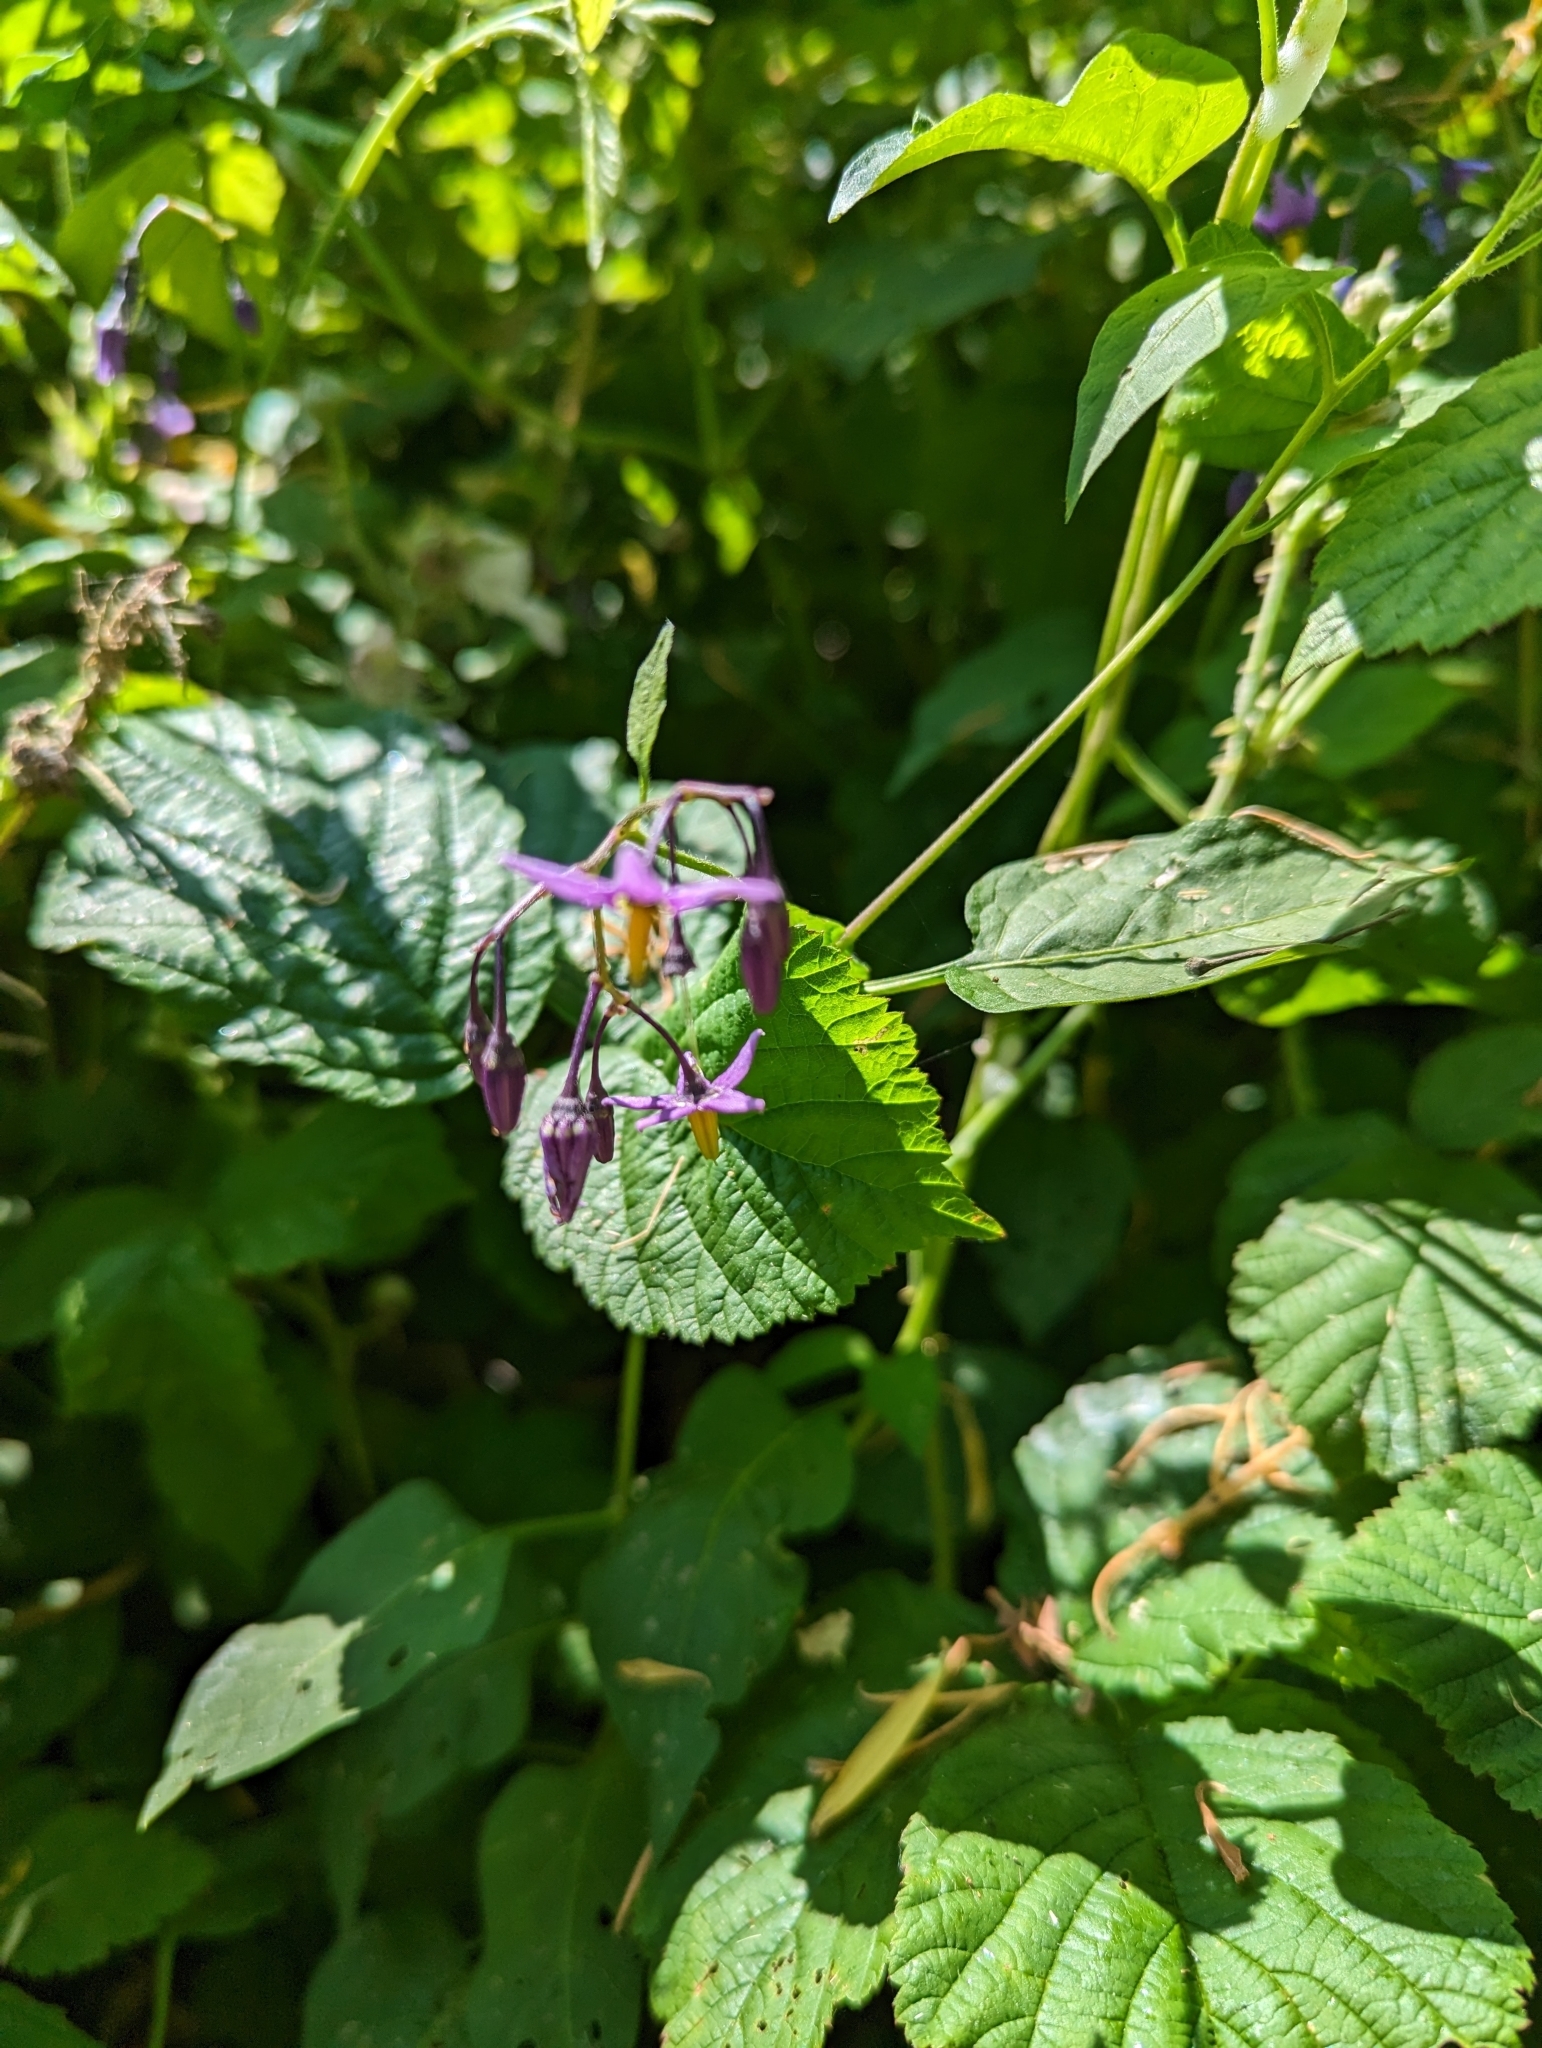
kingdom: Plantae
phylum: Tracheophyta
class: Magnoliopsida
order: Solanales
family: Solanaceae
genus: Solanum
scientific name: Solanum dulcamara
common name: Climbing nightshade
